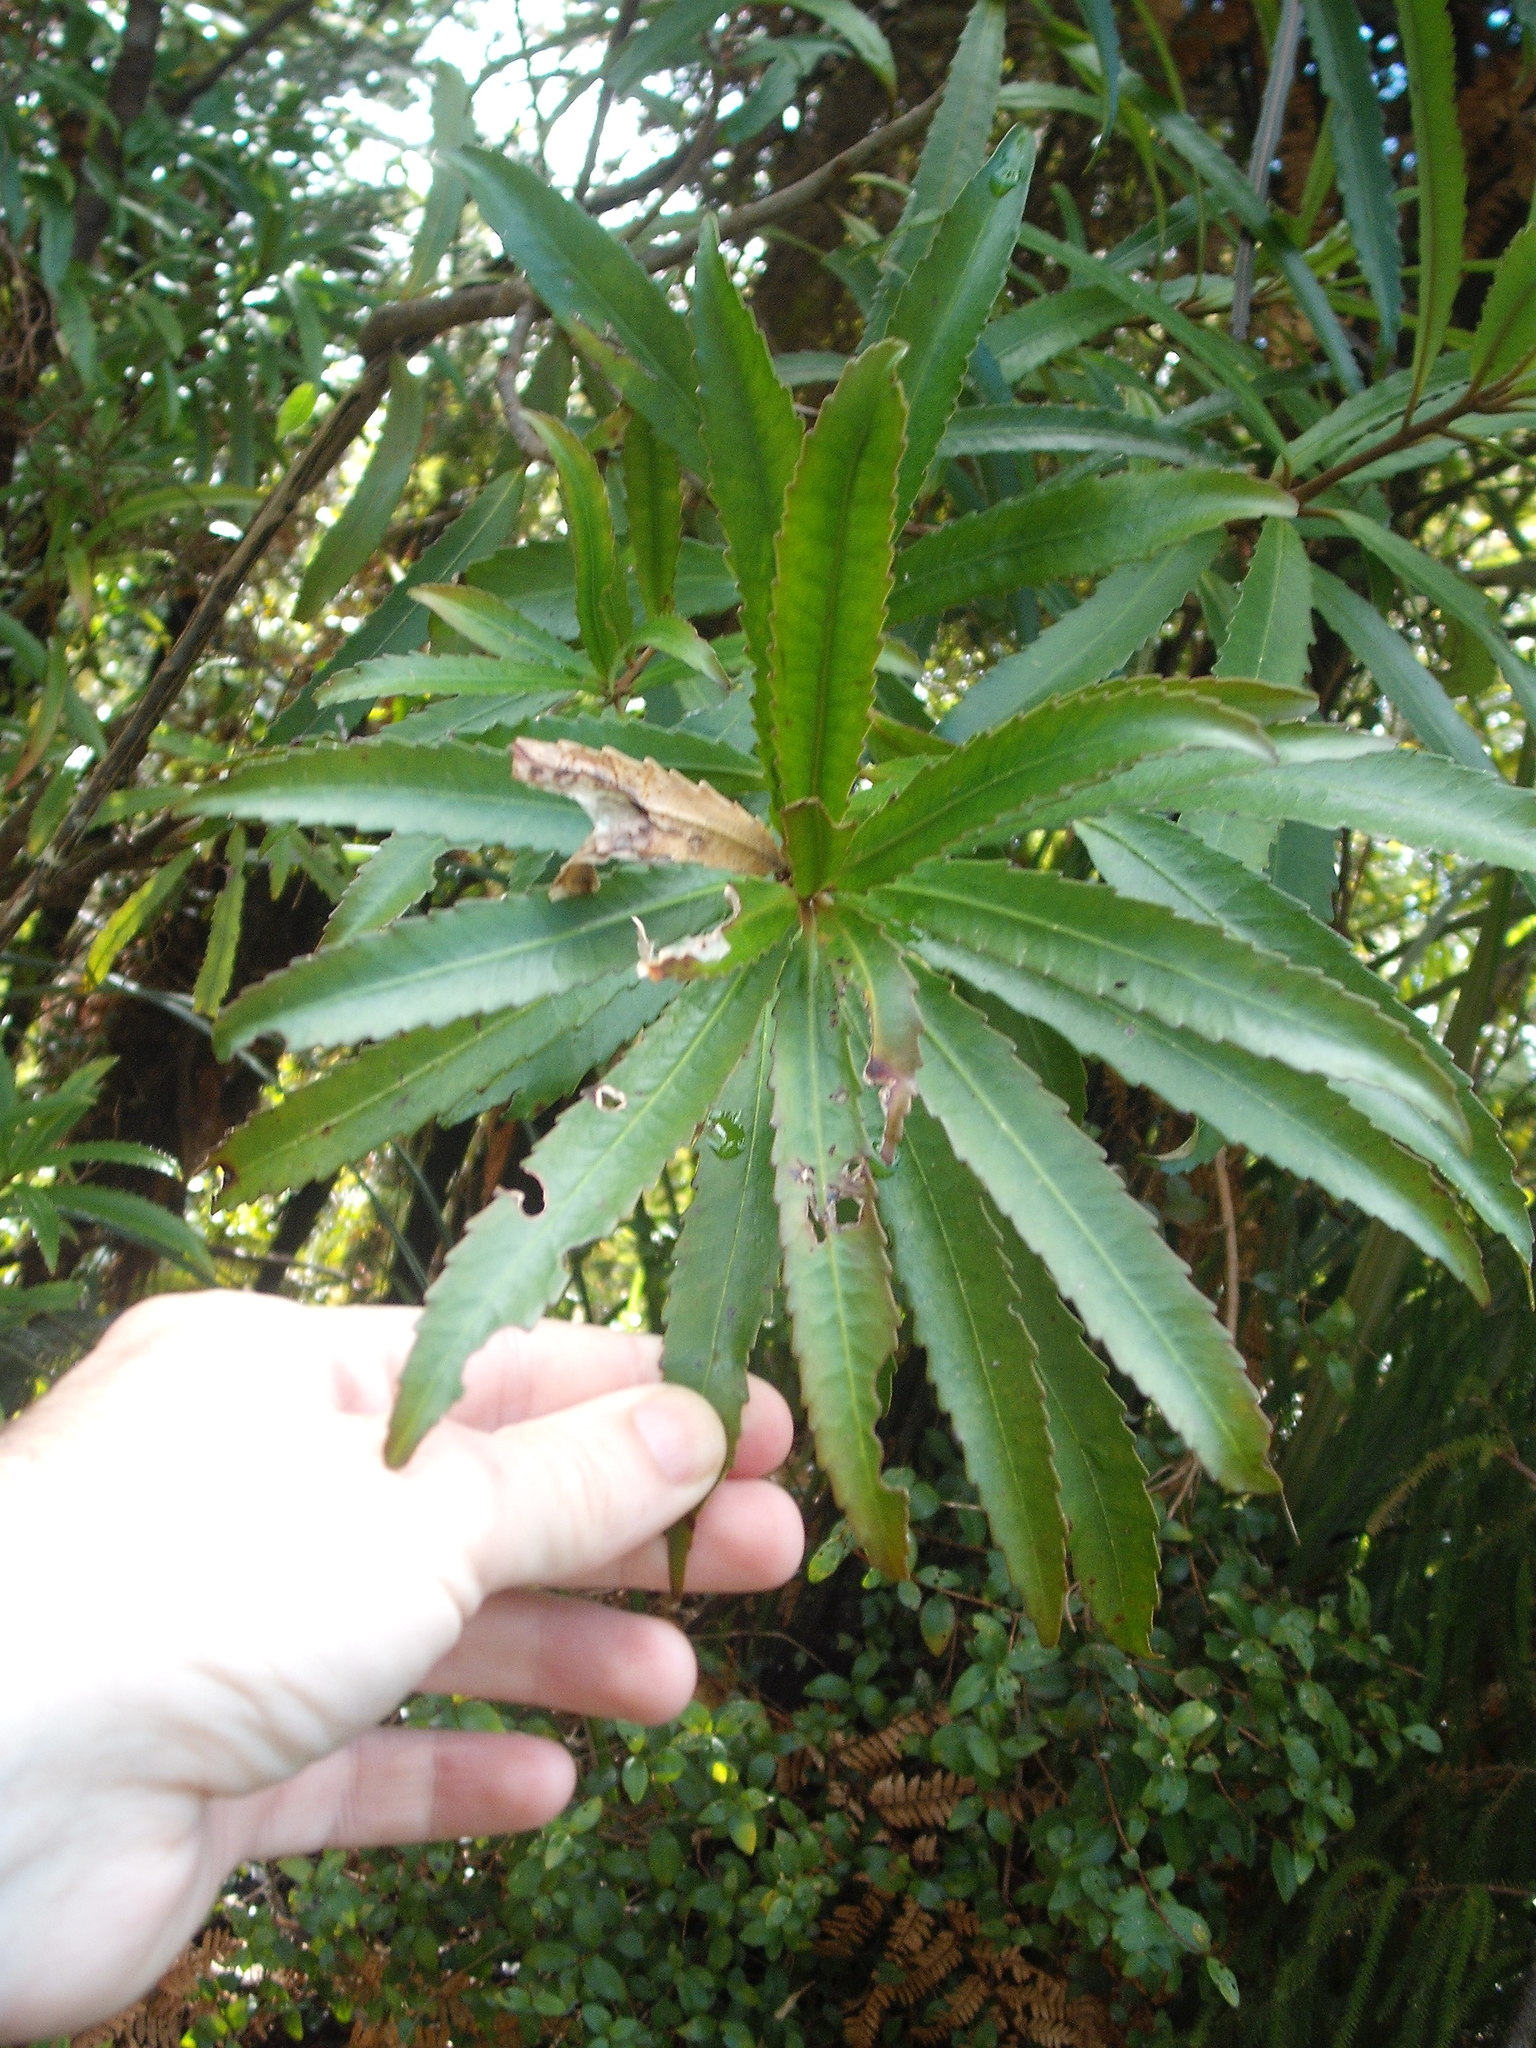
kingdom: Plantae
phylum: Tracheophyta
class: Magnoliopsida
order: Crossosomatales
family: Ixerbaceae
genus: Ixerba
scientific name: Ixerba brexioides
